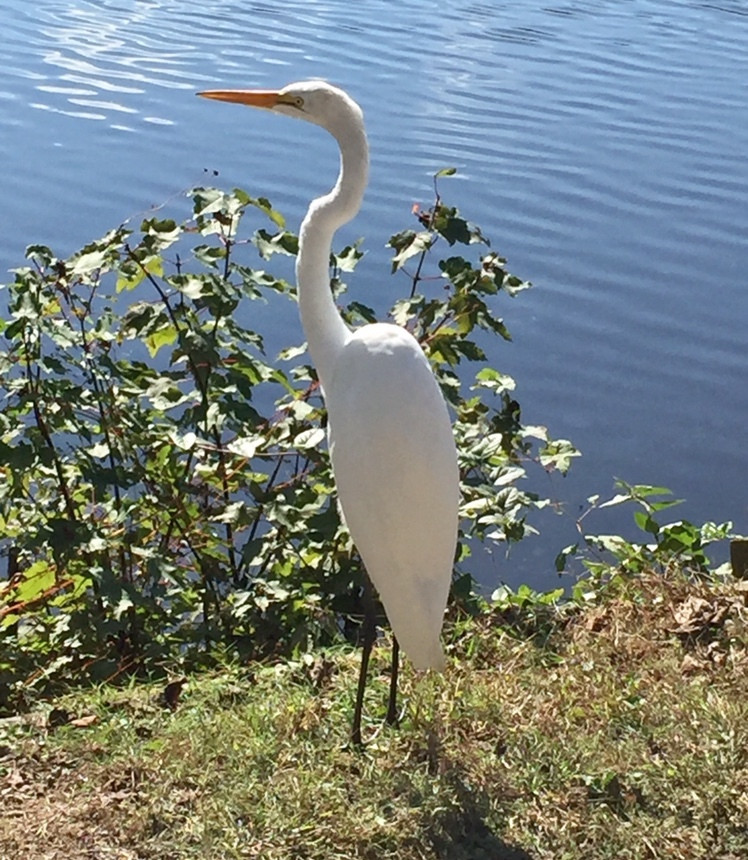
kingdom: Animalia
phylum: Chordata
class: Aves
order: Pelecaniformes
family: Ardeidae
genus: Ardea
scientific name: Ardea alba
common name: Great egret
